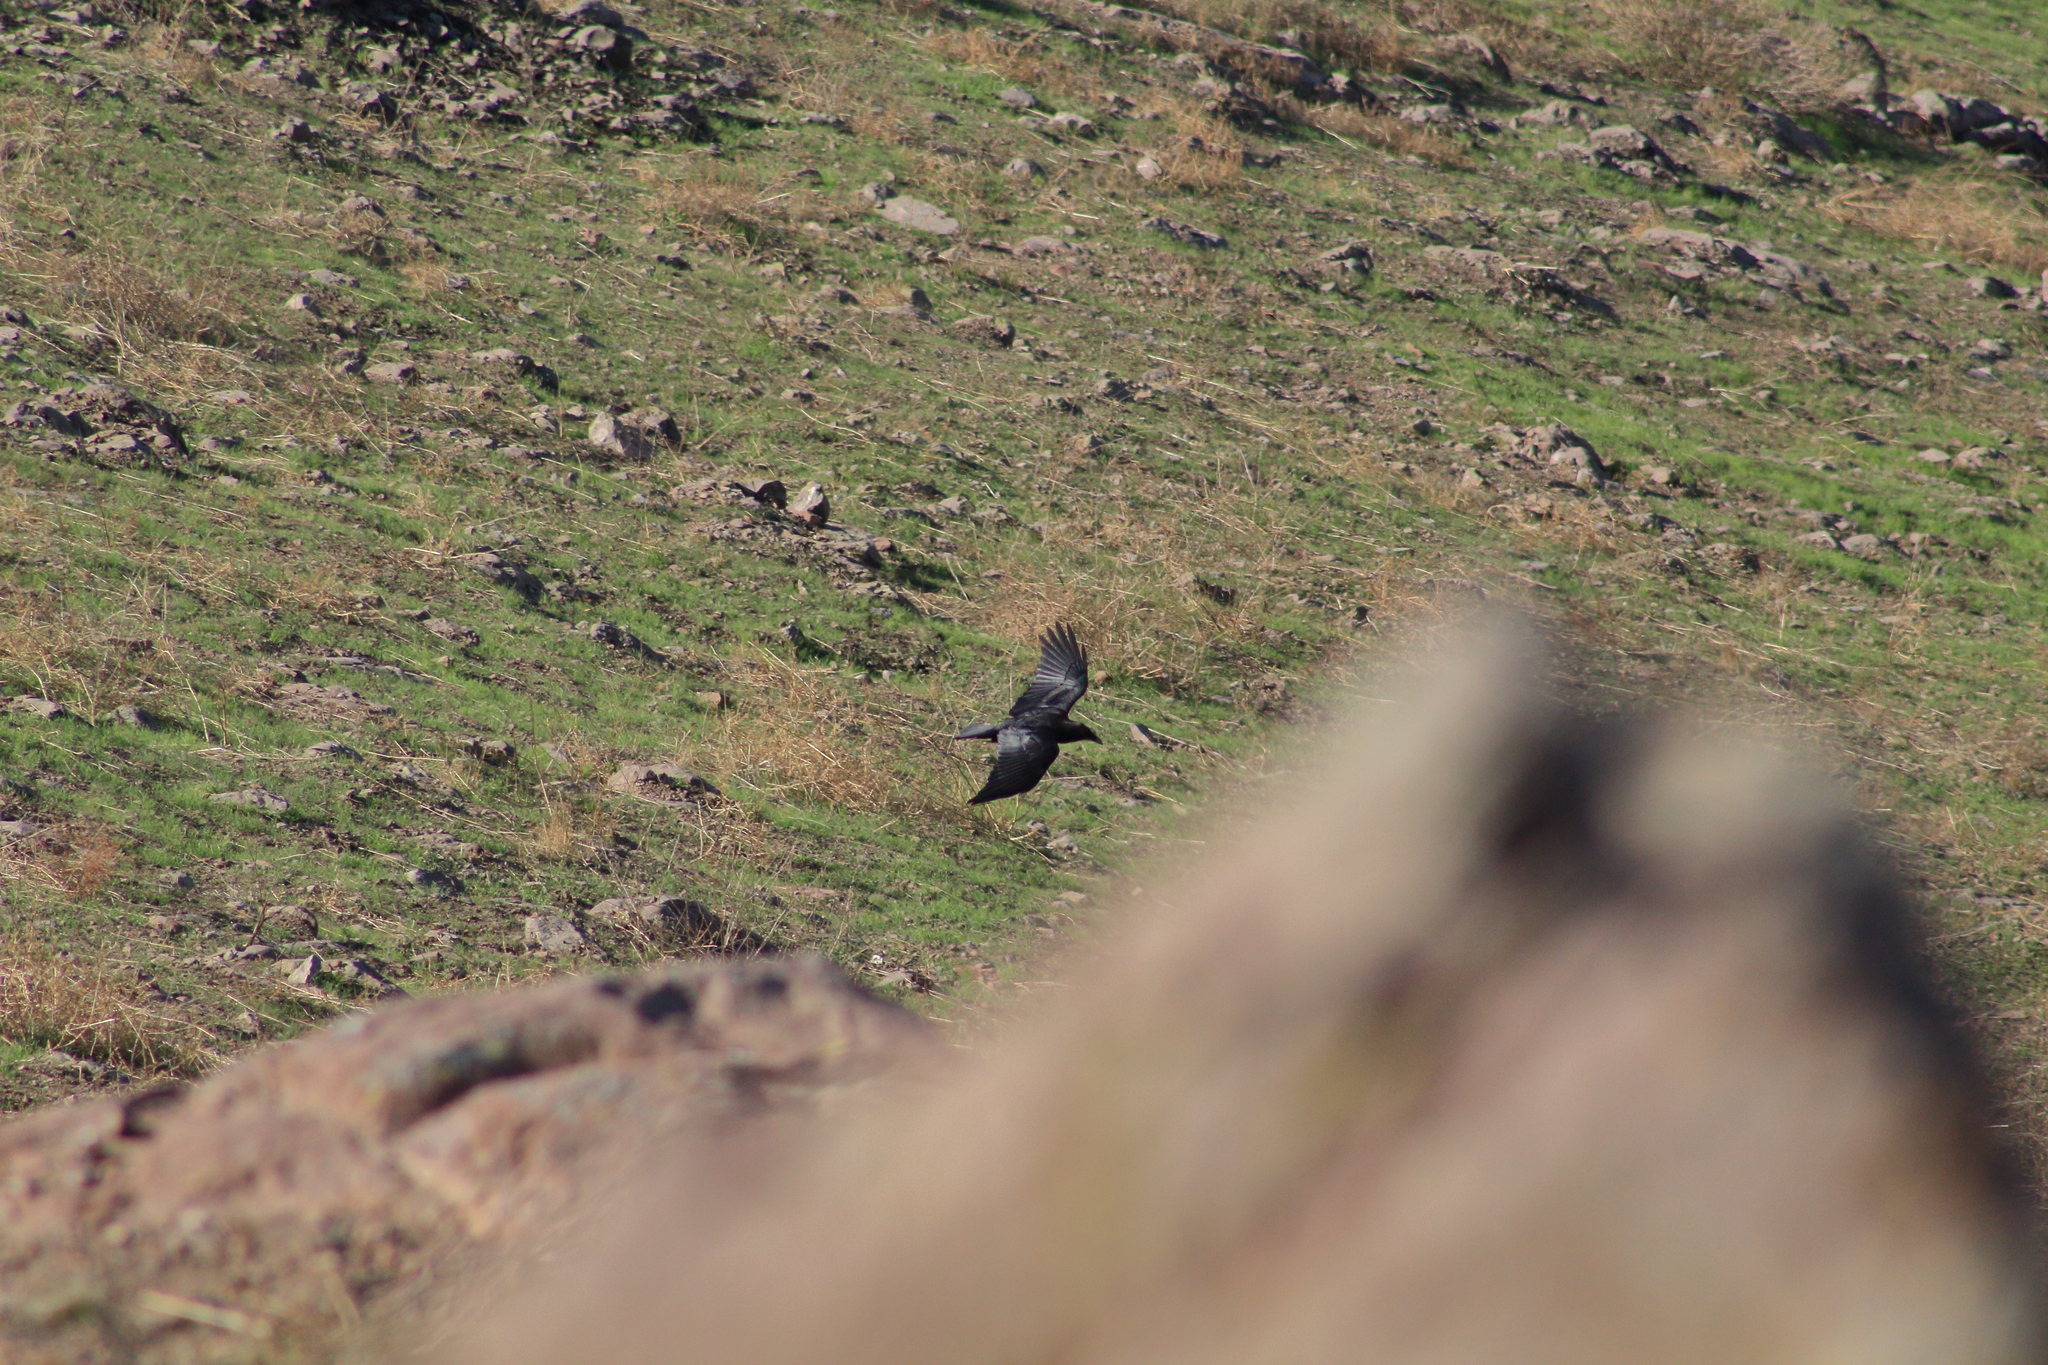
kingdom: Animalia
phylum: Chordata
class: Aves
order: Passeriformes
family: Corvidae
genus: Corvus
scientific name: Corvus corax
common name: Common raven
